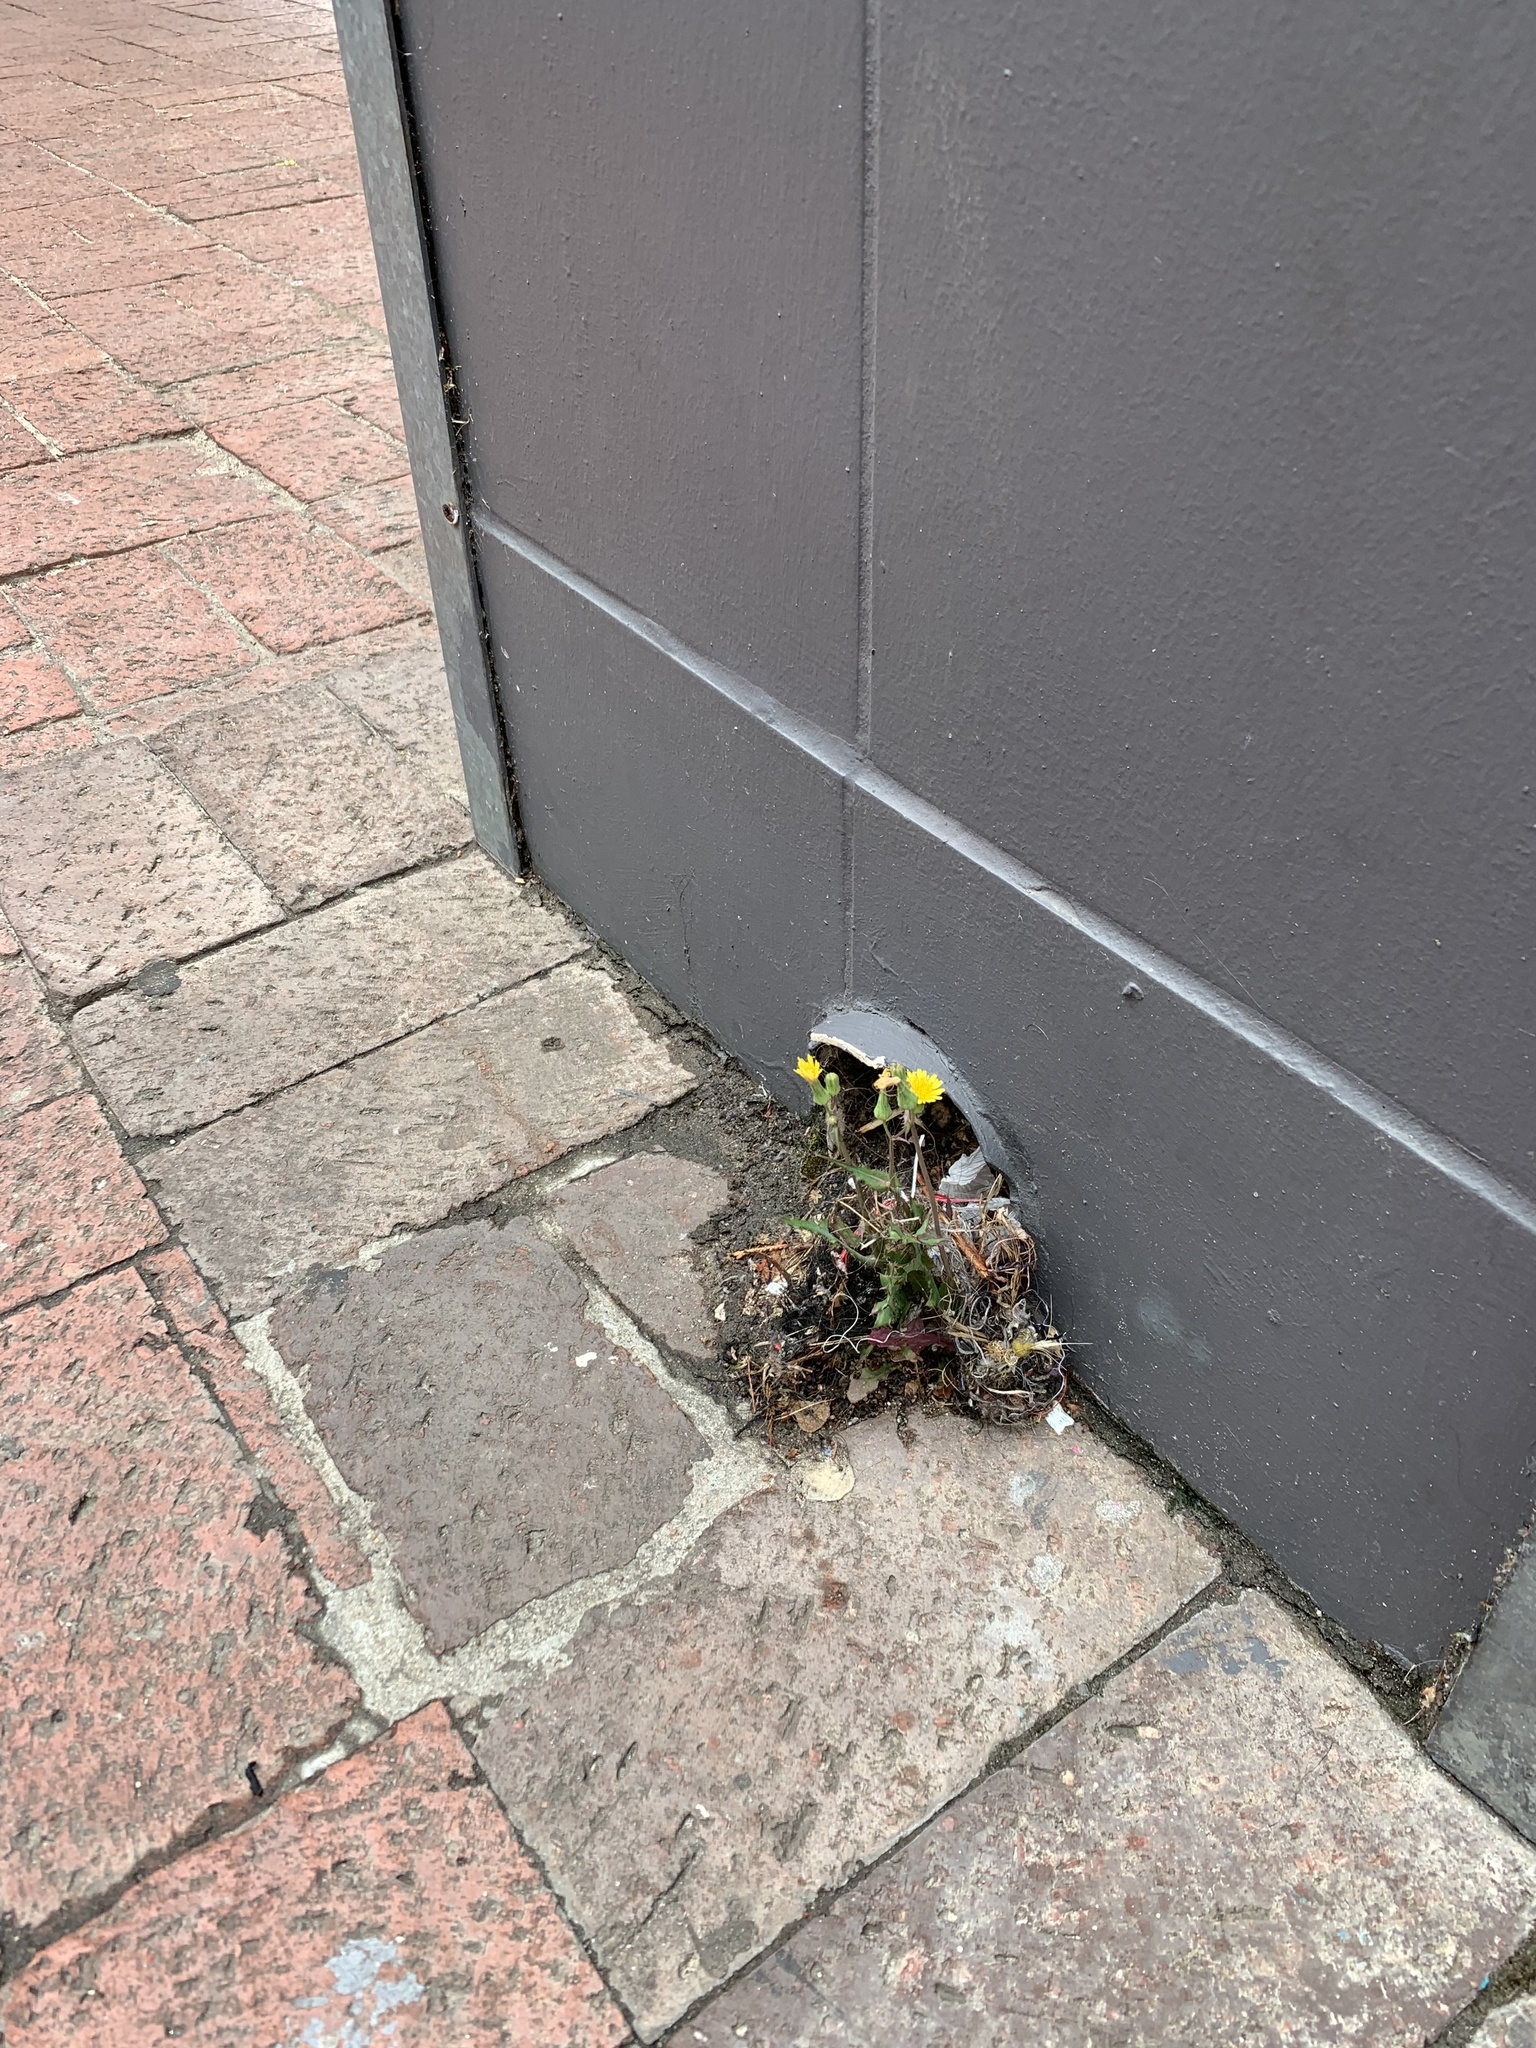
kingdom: Plantae
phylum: Tracheophyta
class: Magnoliopsida
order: Asterales
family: Asteraceae
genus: Sonchus
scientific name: Sonchus oleraceus
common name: Common sowthistle
